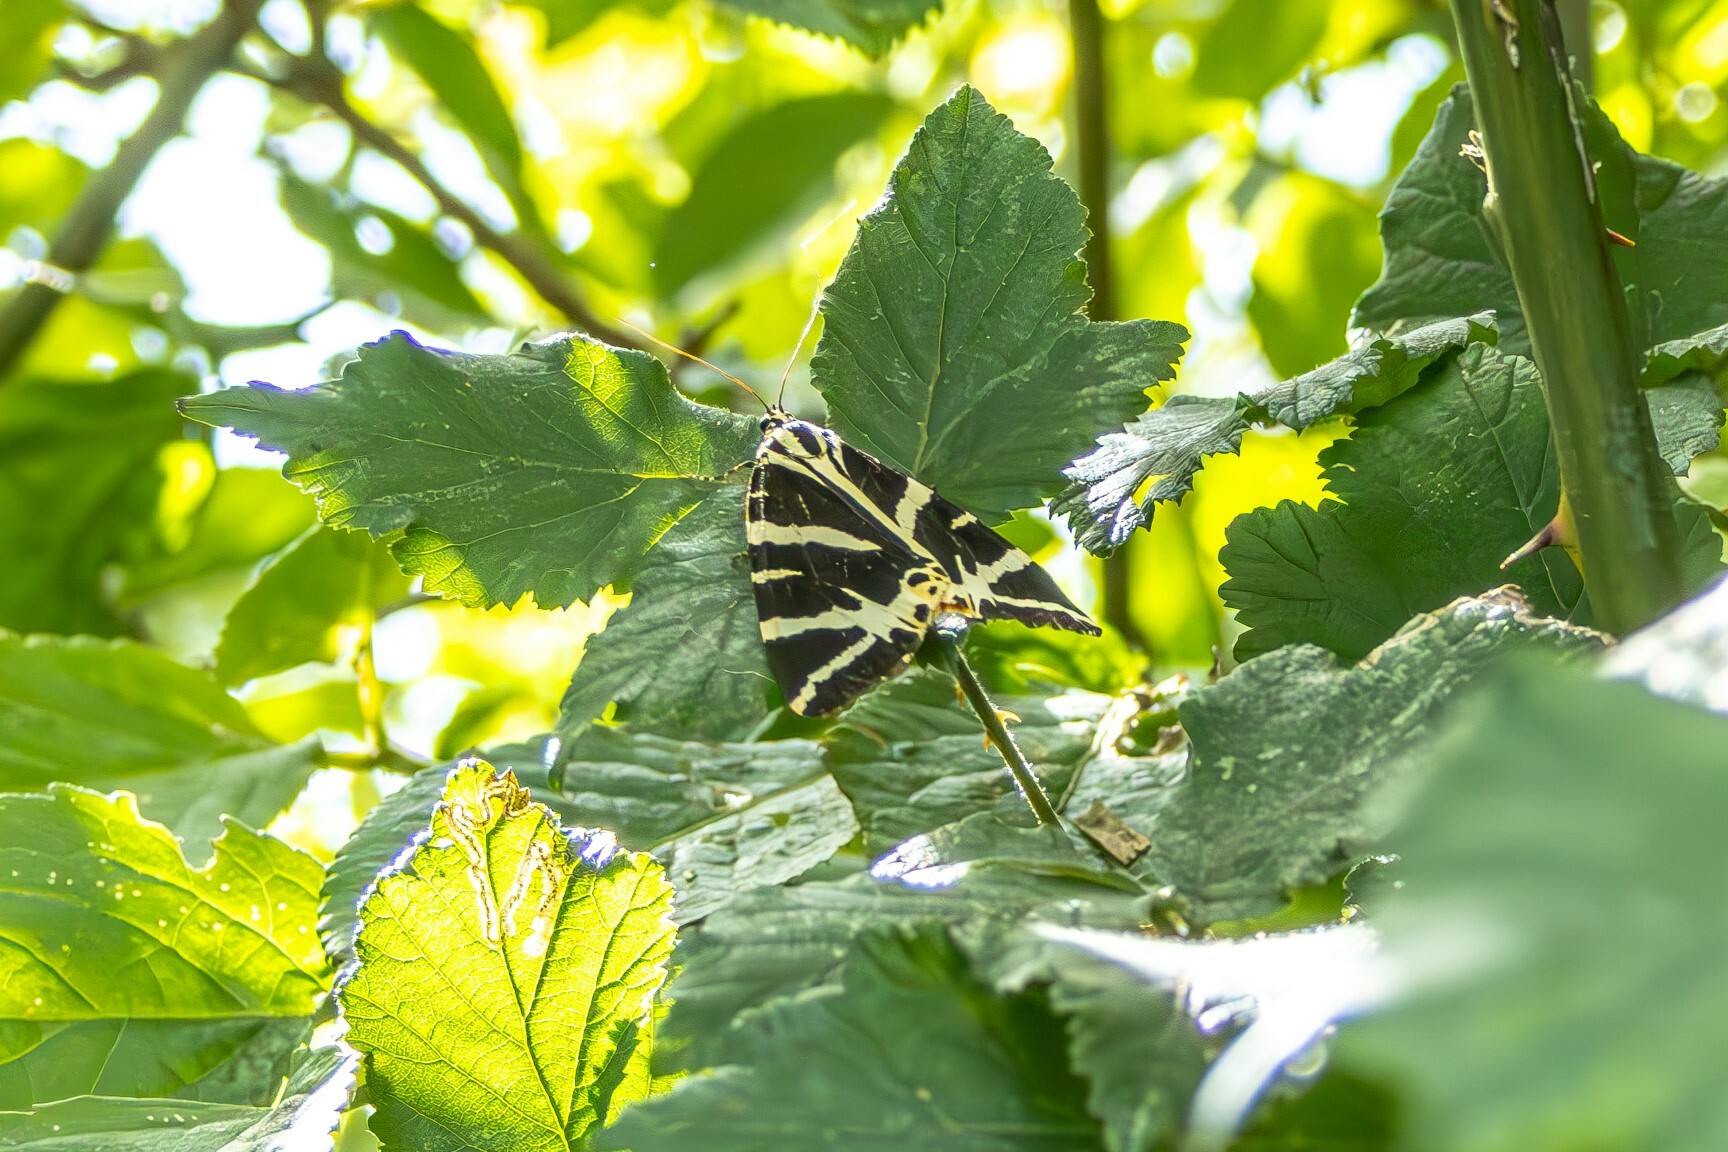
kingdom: Animalia
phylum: Arthropoda
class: Insecta
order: Lepidoptera
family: Erebidae
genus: Euplagia
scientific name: Euplagia quadripunctaria
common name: Jersey tiger
